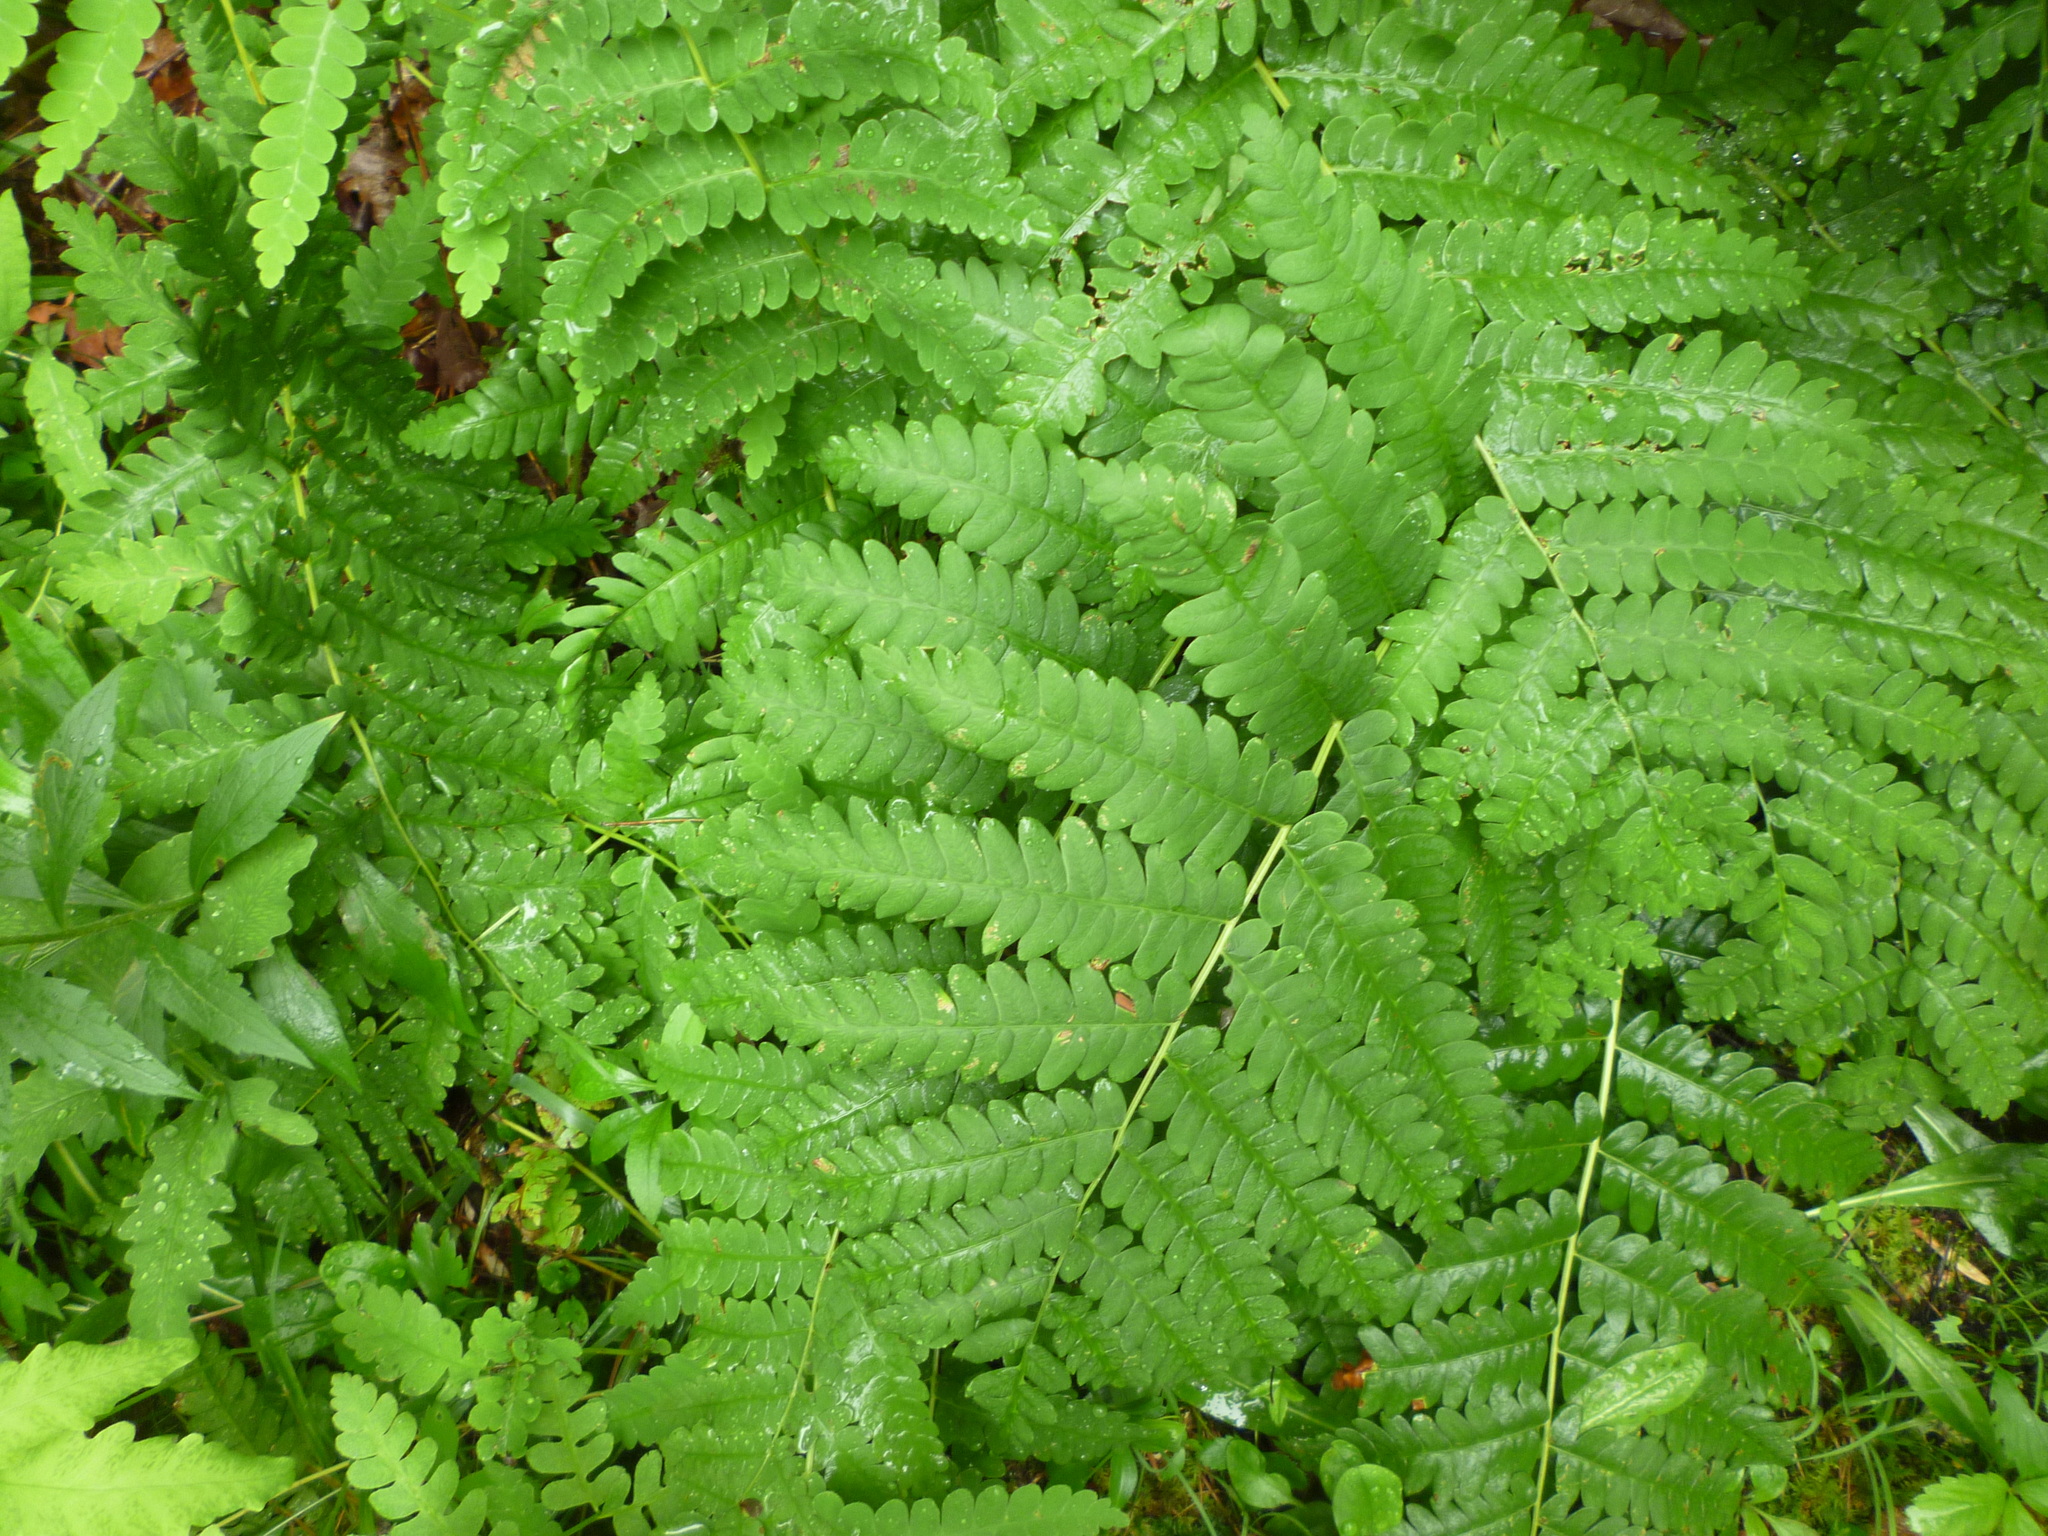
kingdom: Plantae
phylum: Tracheophyta
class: Polypodiopsida
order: Osmundales
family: Osmundaceae
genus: Osmundastrum
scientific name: Osmundastrum cinnamomeum
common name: Cinnamon fern
